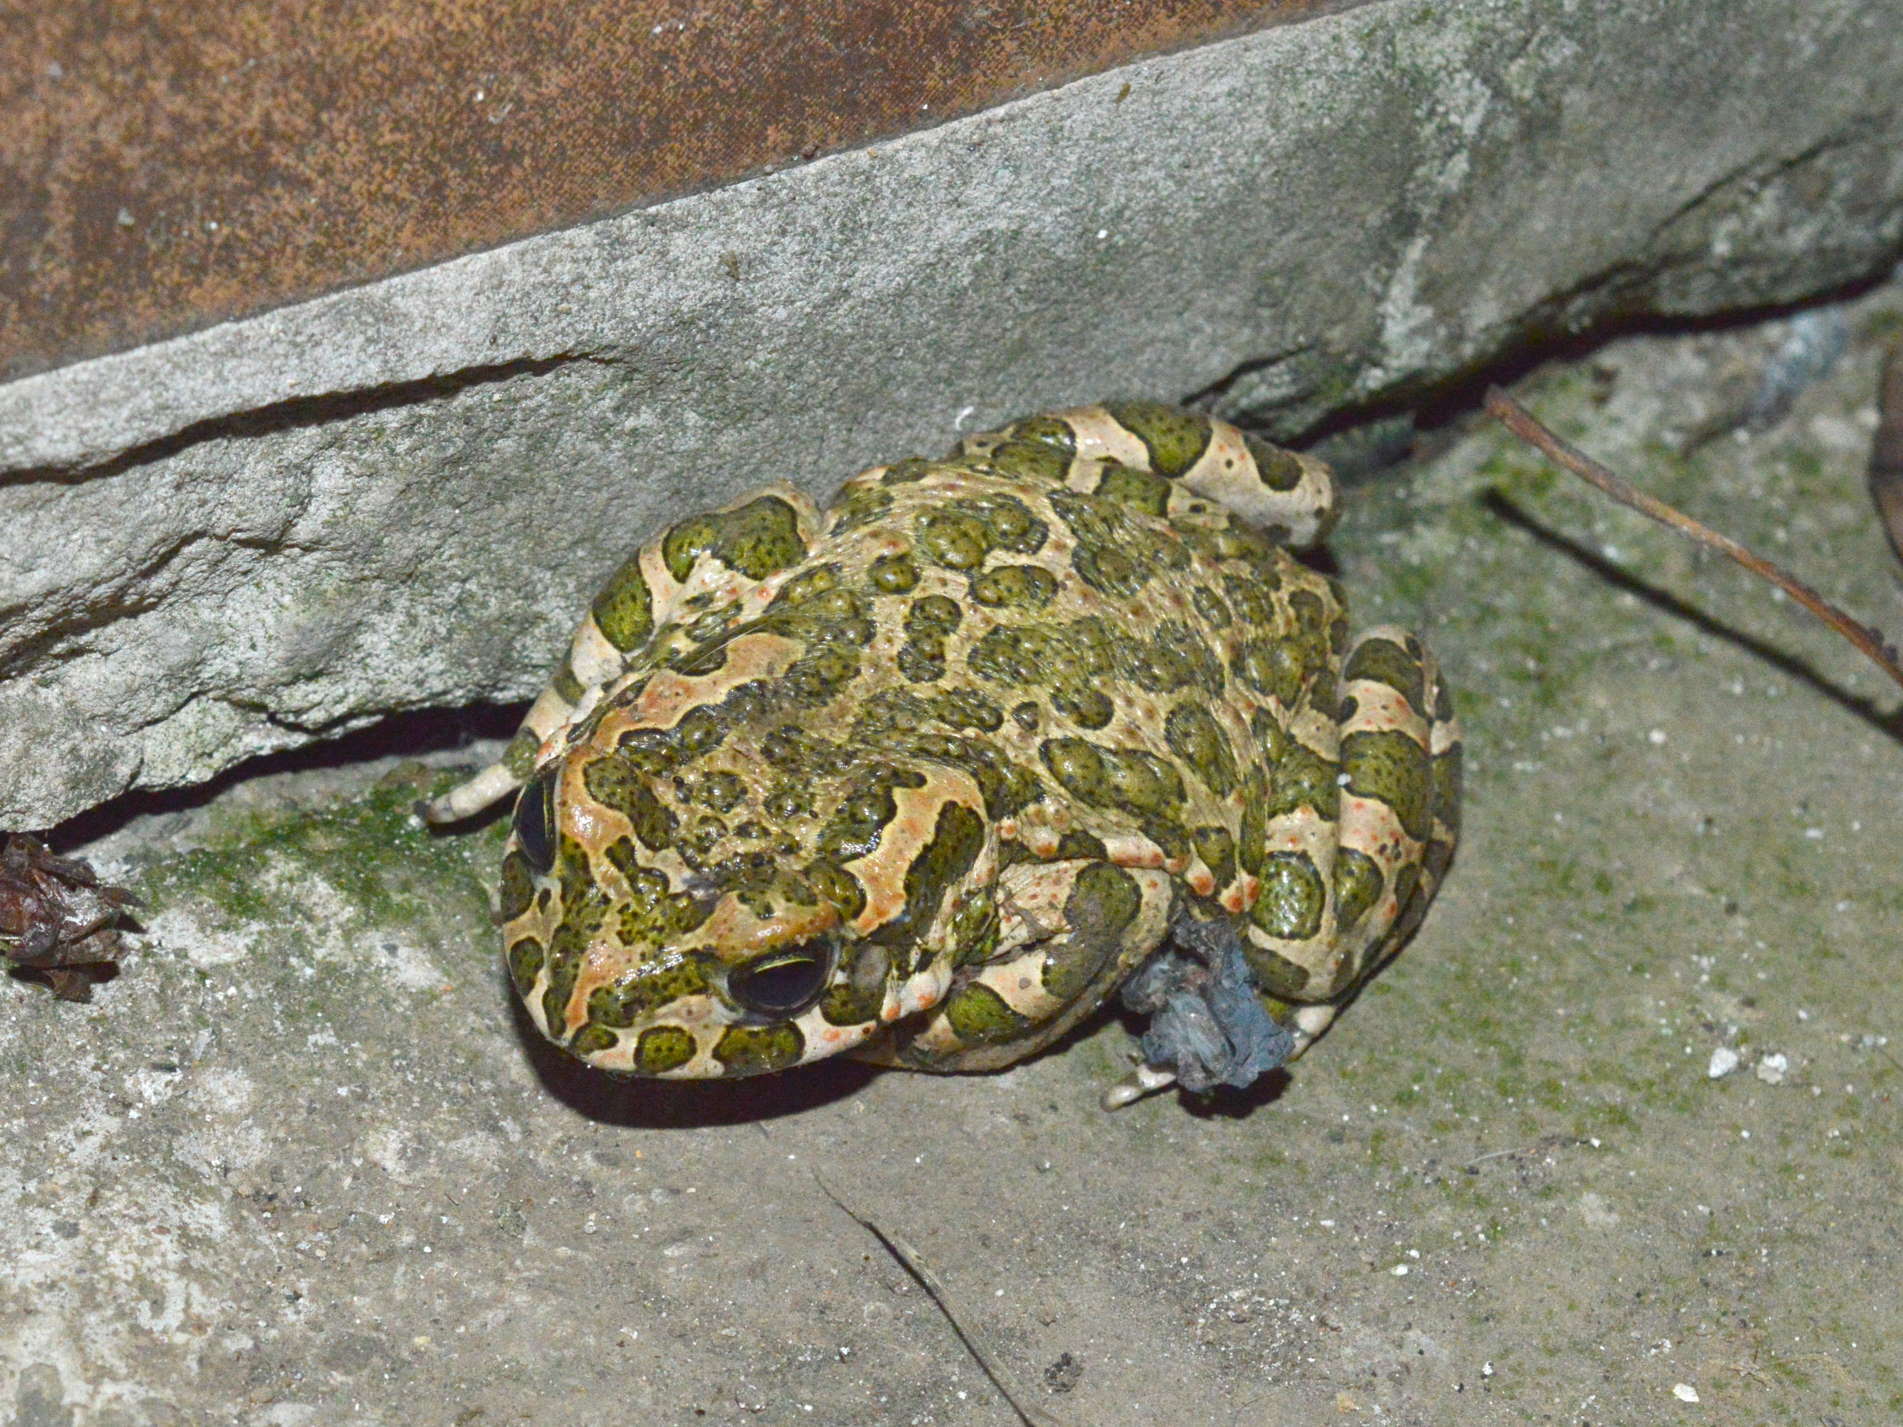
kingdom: Animalia
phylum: Chordata
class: Amphibia
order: Anura
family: Bufonidae
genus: Bufotes
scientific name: Bufotes viridis
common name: European green toad
